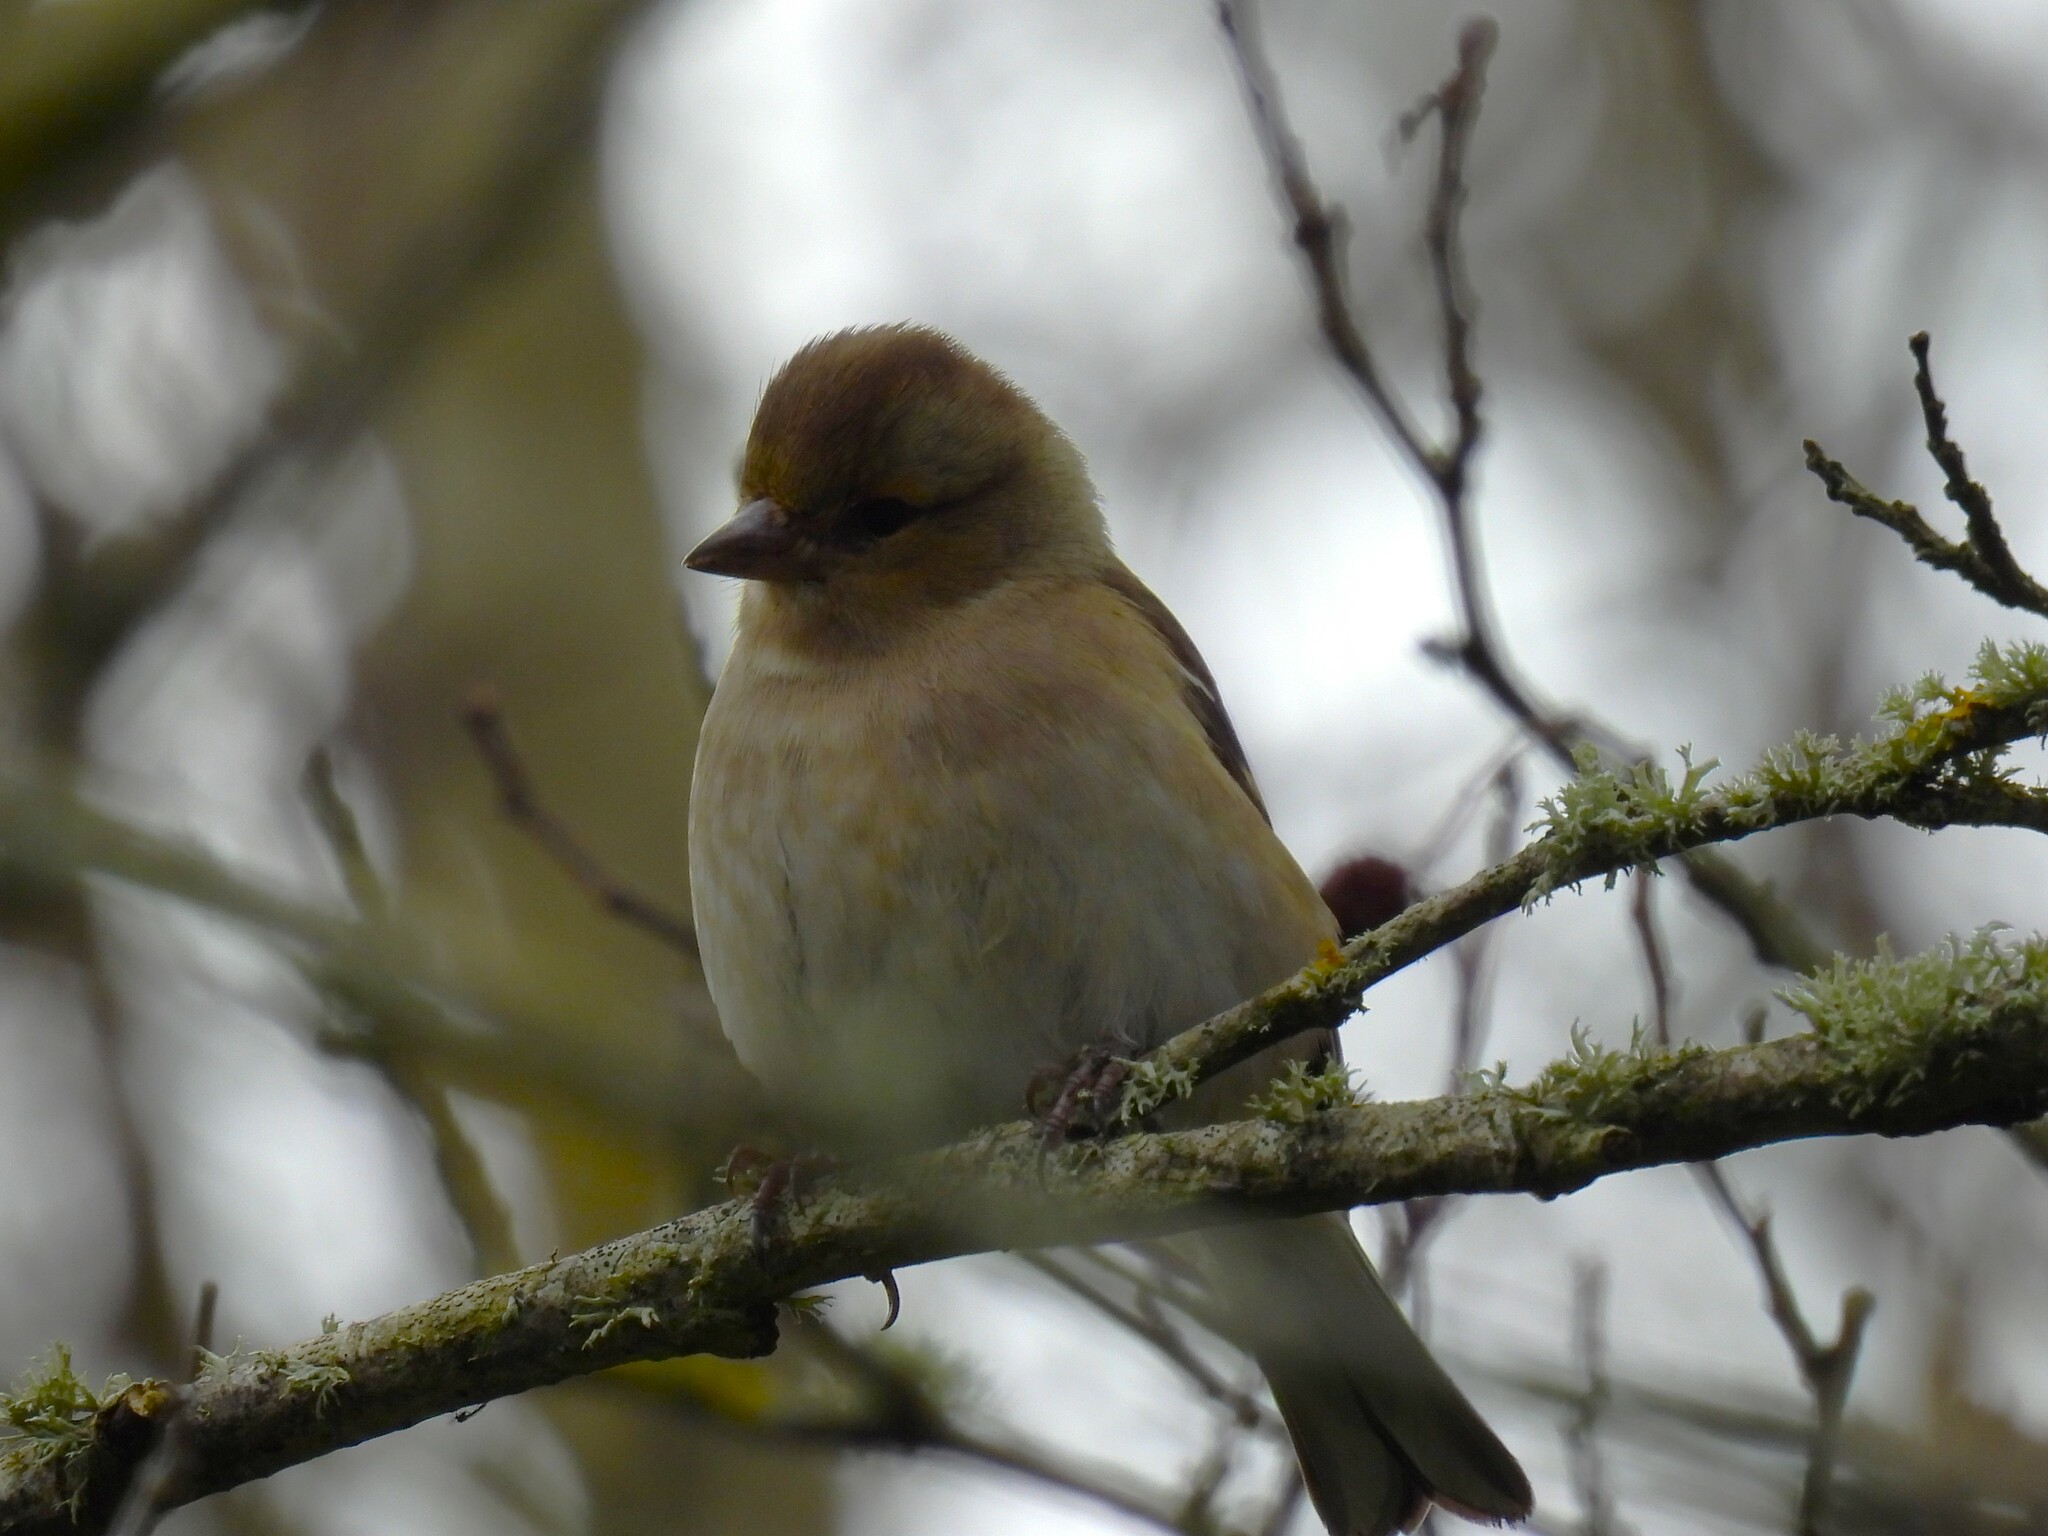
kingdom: Animalia
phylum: Chordata
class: Aves
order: Passeriformes
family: Fringillidae
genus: Fringilla
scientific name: Fringilla coelebs
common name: Common chaffinch
